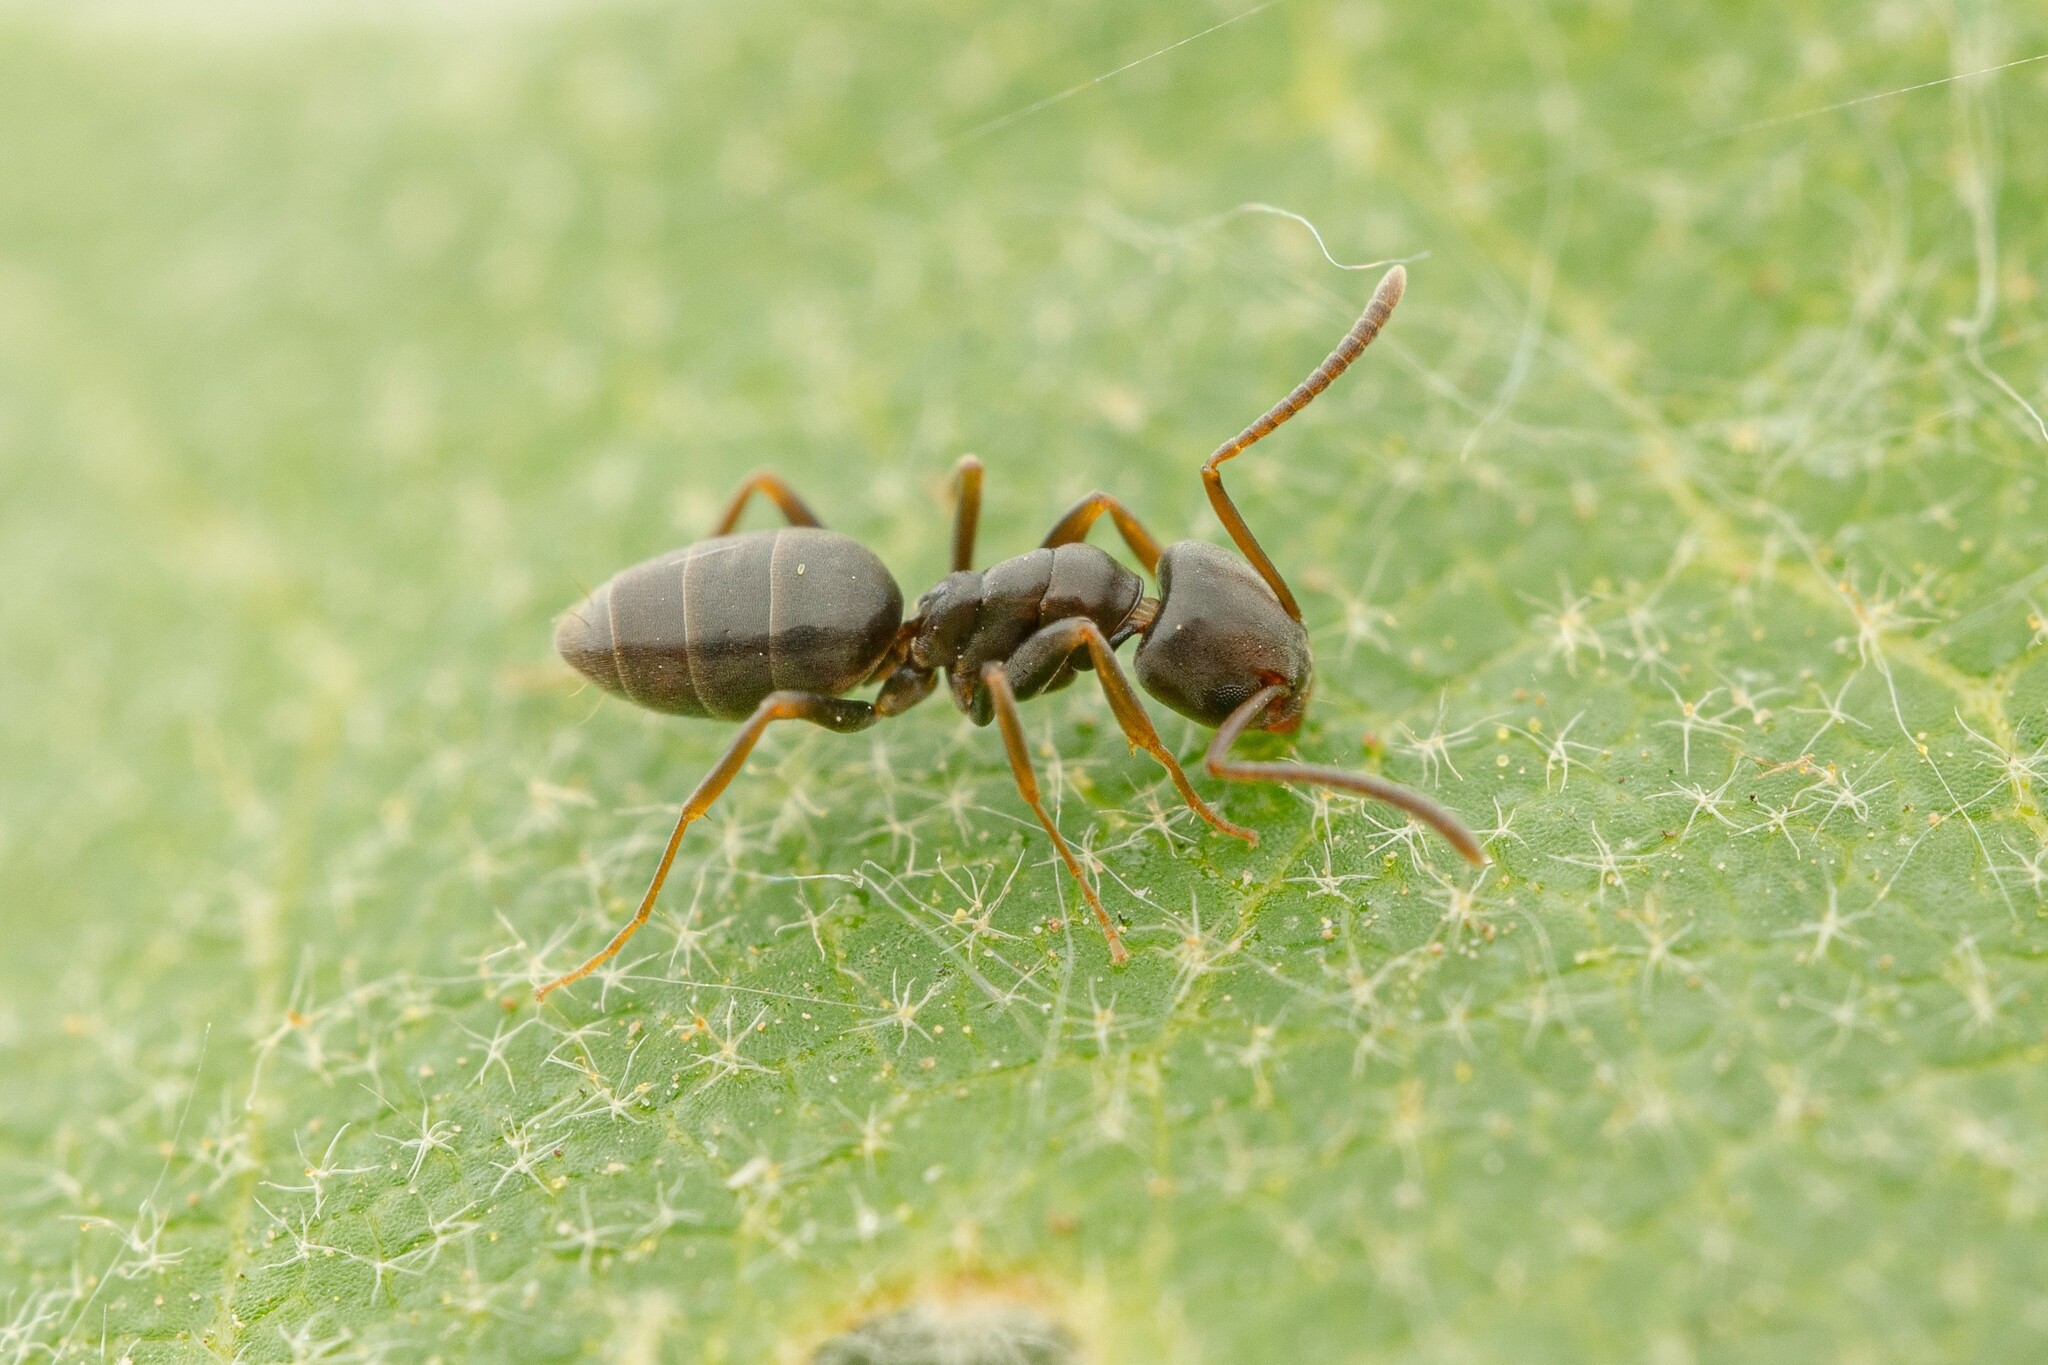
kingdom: Animalia
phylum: Arthropoda
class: Insecta
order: Hymenoptera
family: Formicidae
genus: Tapinoma
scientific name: Tapinoma sessile
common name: Odorous house ant
